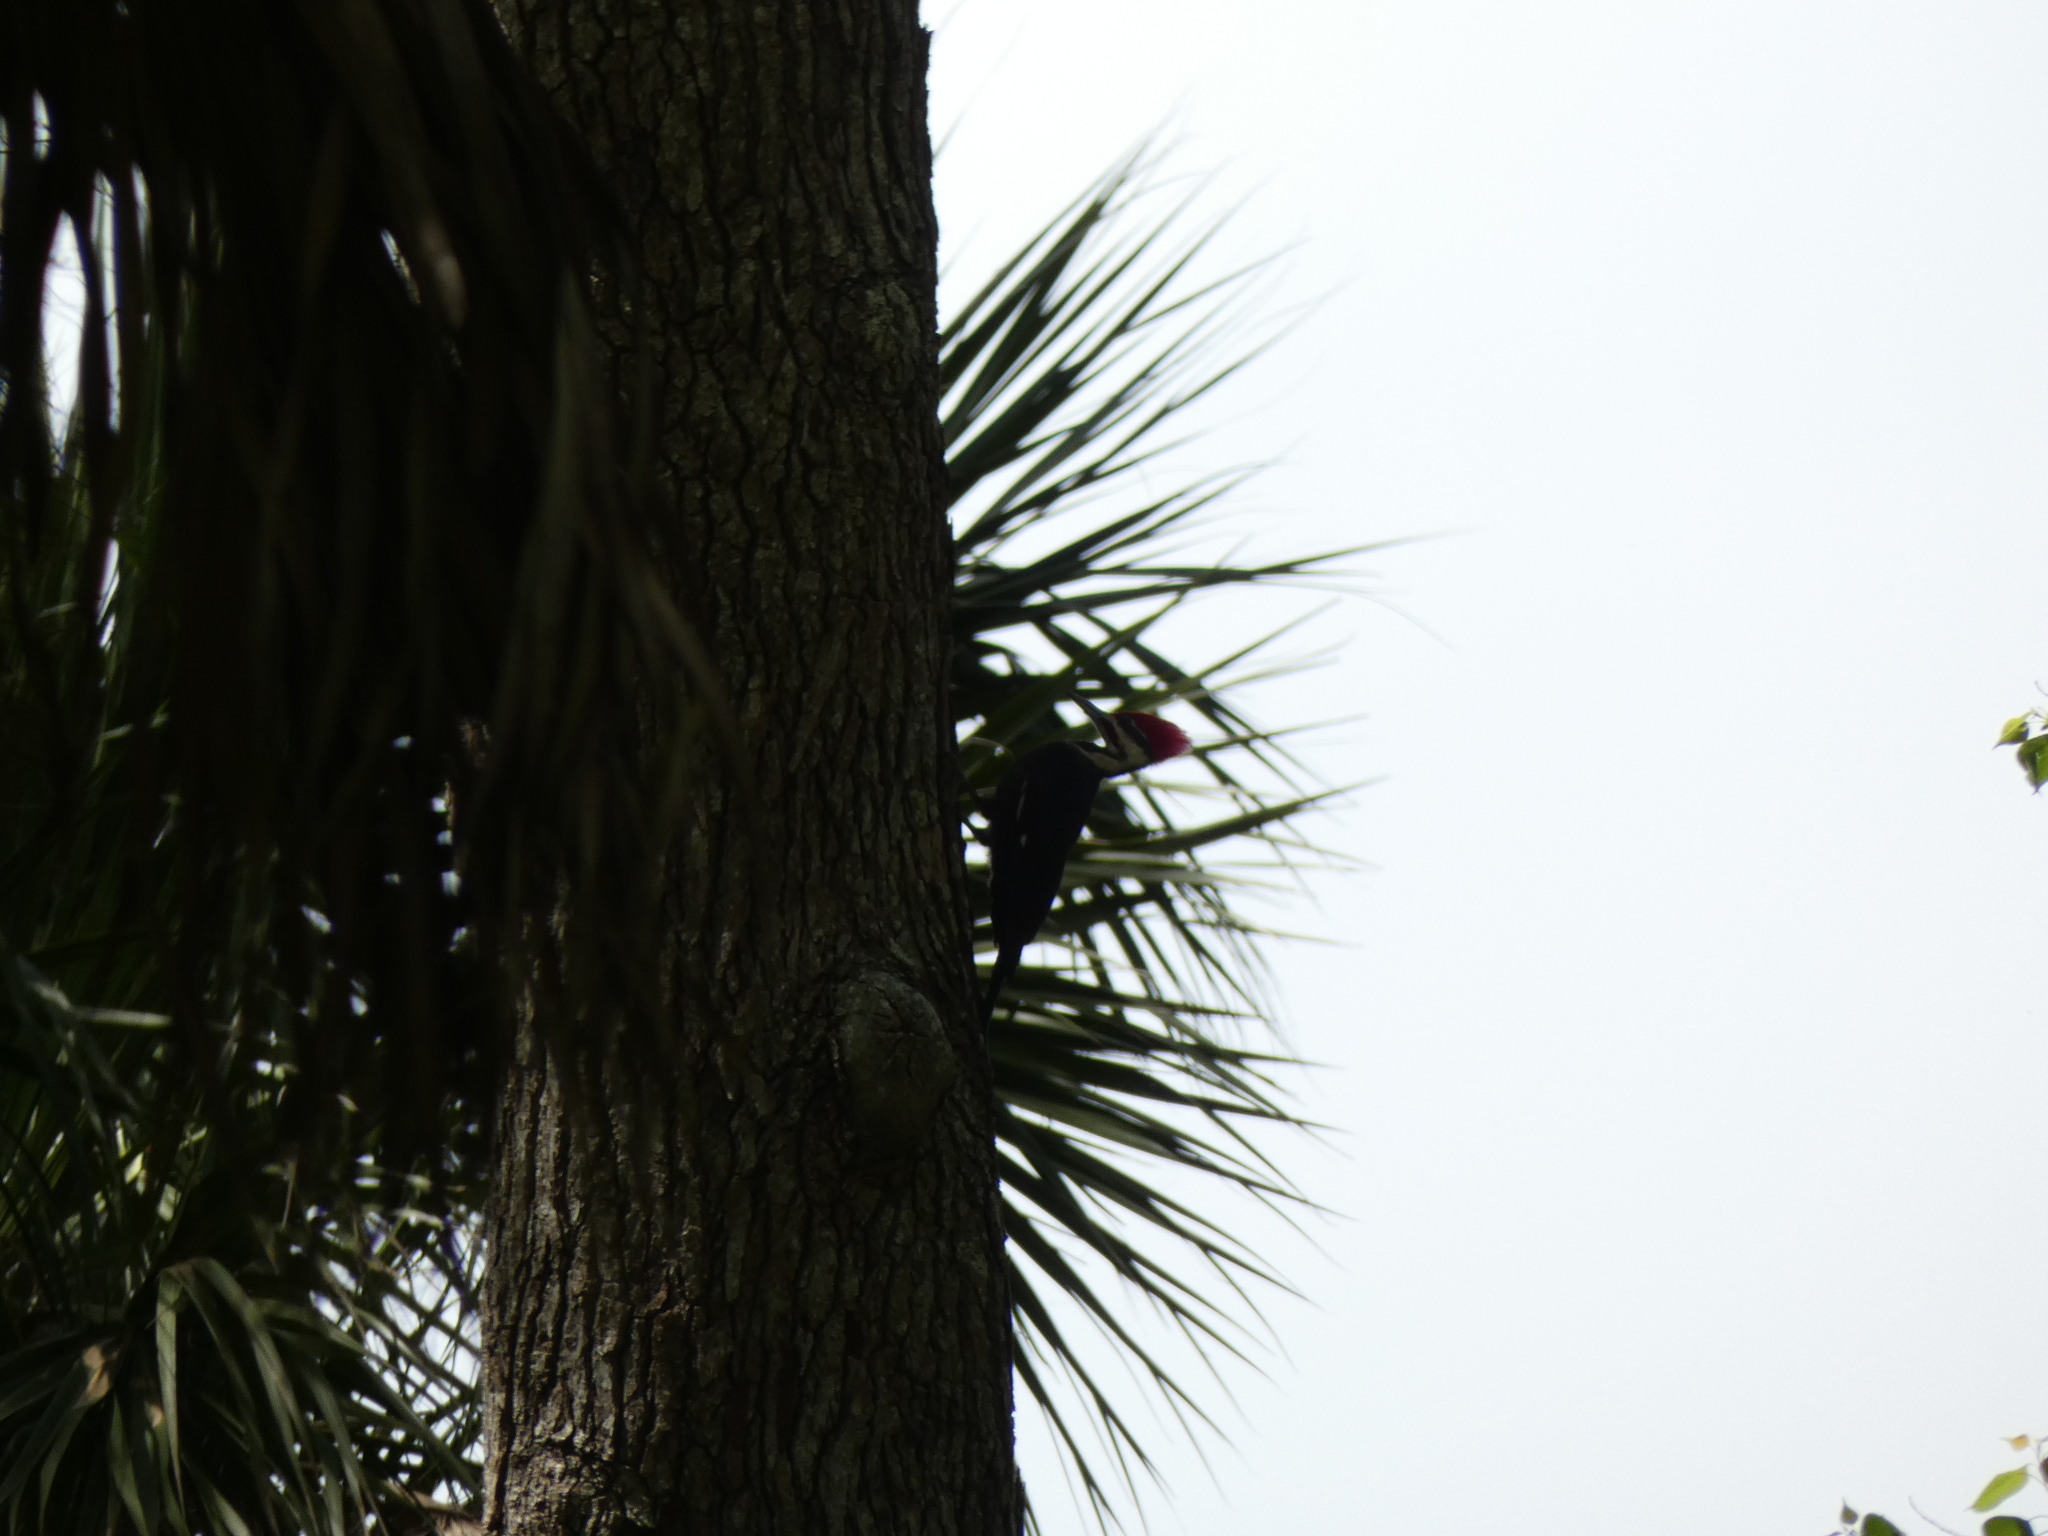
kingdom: Animalia
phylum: Chordata
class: Aves
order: Piciformes
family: Picidae
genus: Dryocopus
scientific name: Dryocopus pileatus
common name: Pileated woodpecker
